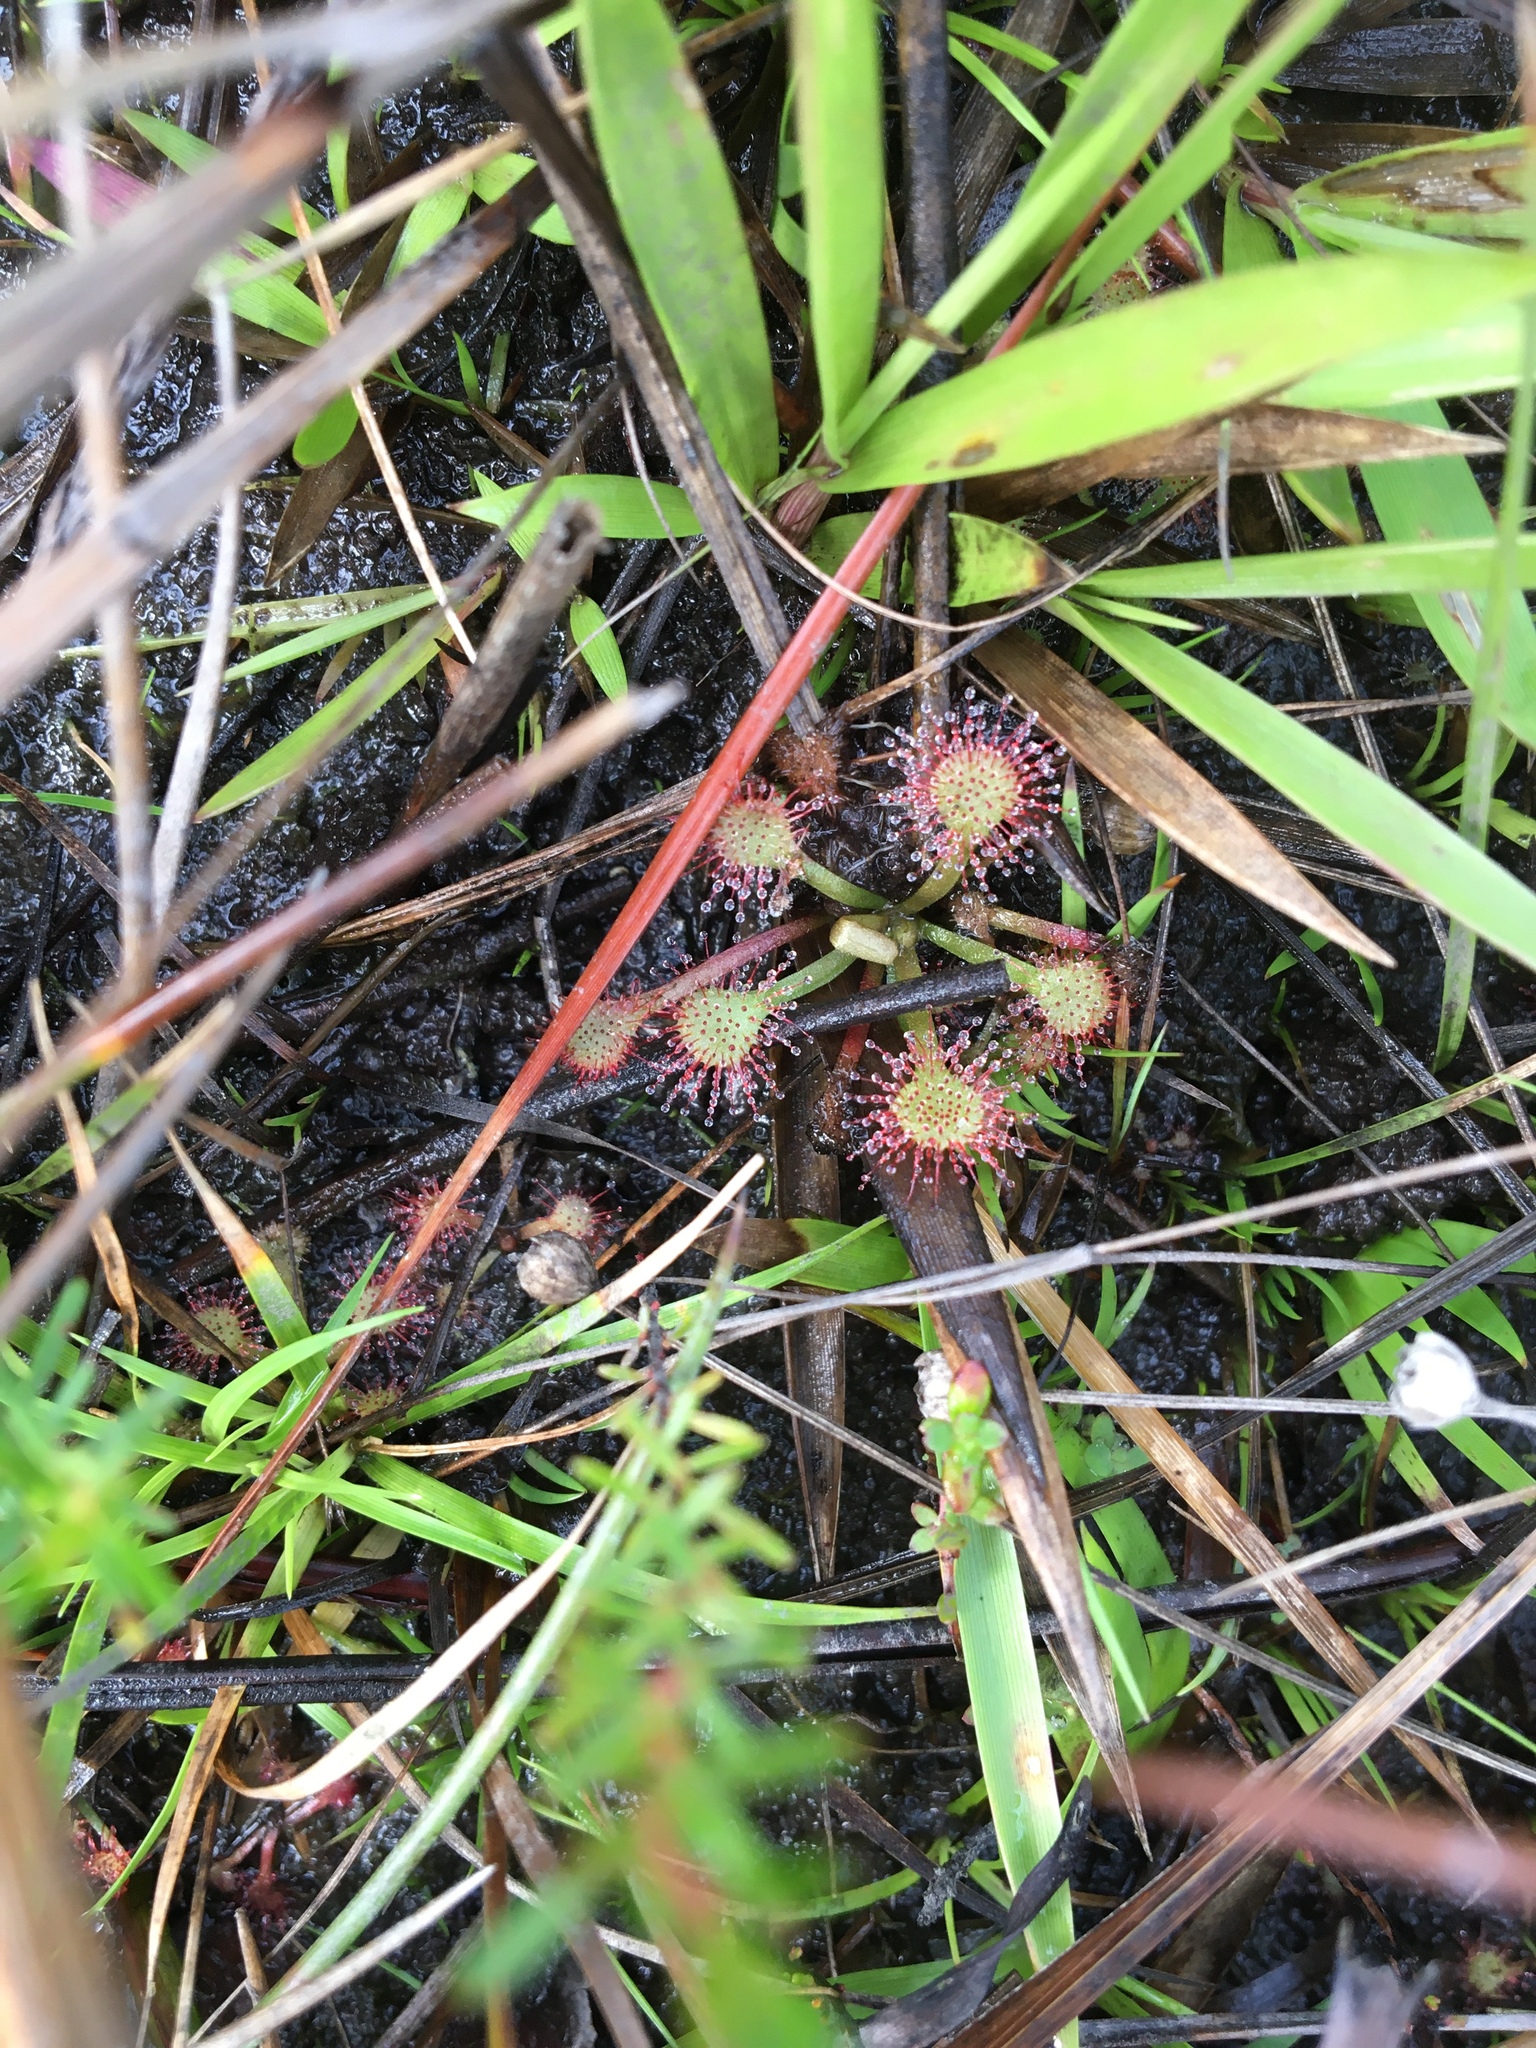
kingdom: Plantae
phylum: Tracheophyta
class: Magnoliopsida
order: Caryophyllales
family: Droseraceae
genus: Drosera
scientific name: Drosera capillaris
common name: Pink sundew
